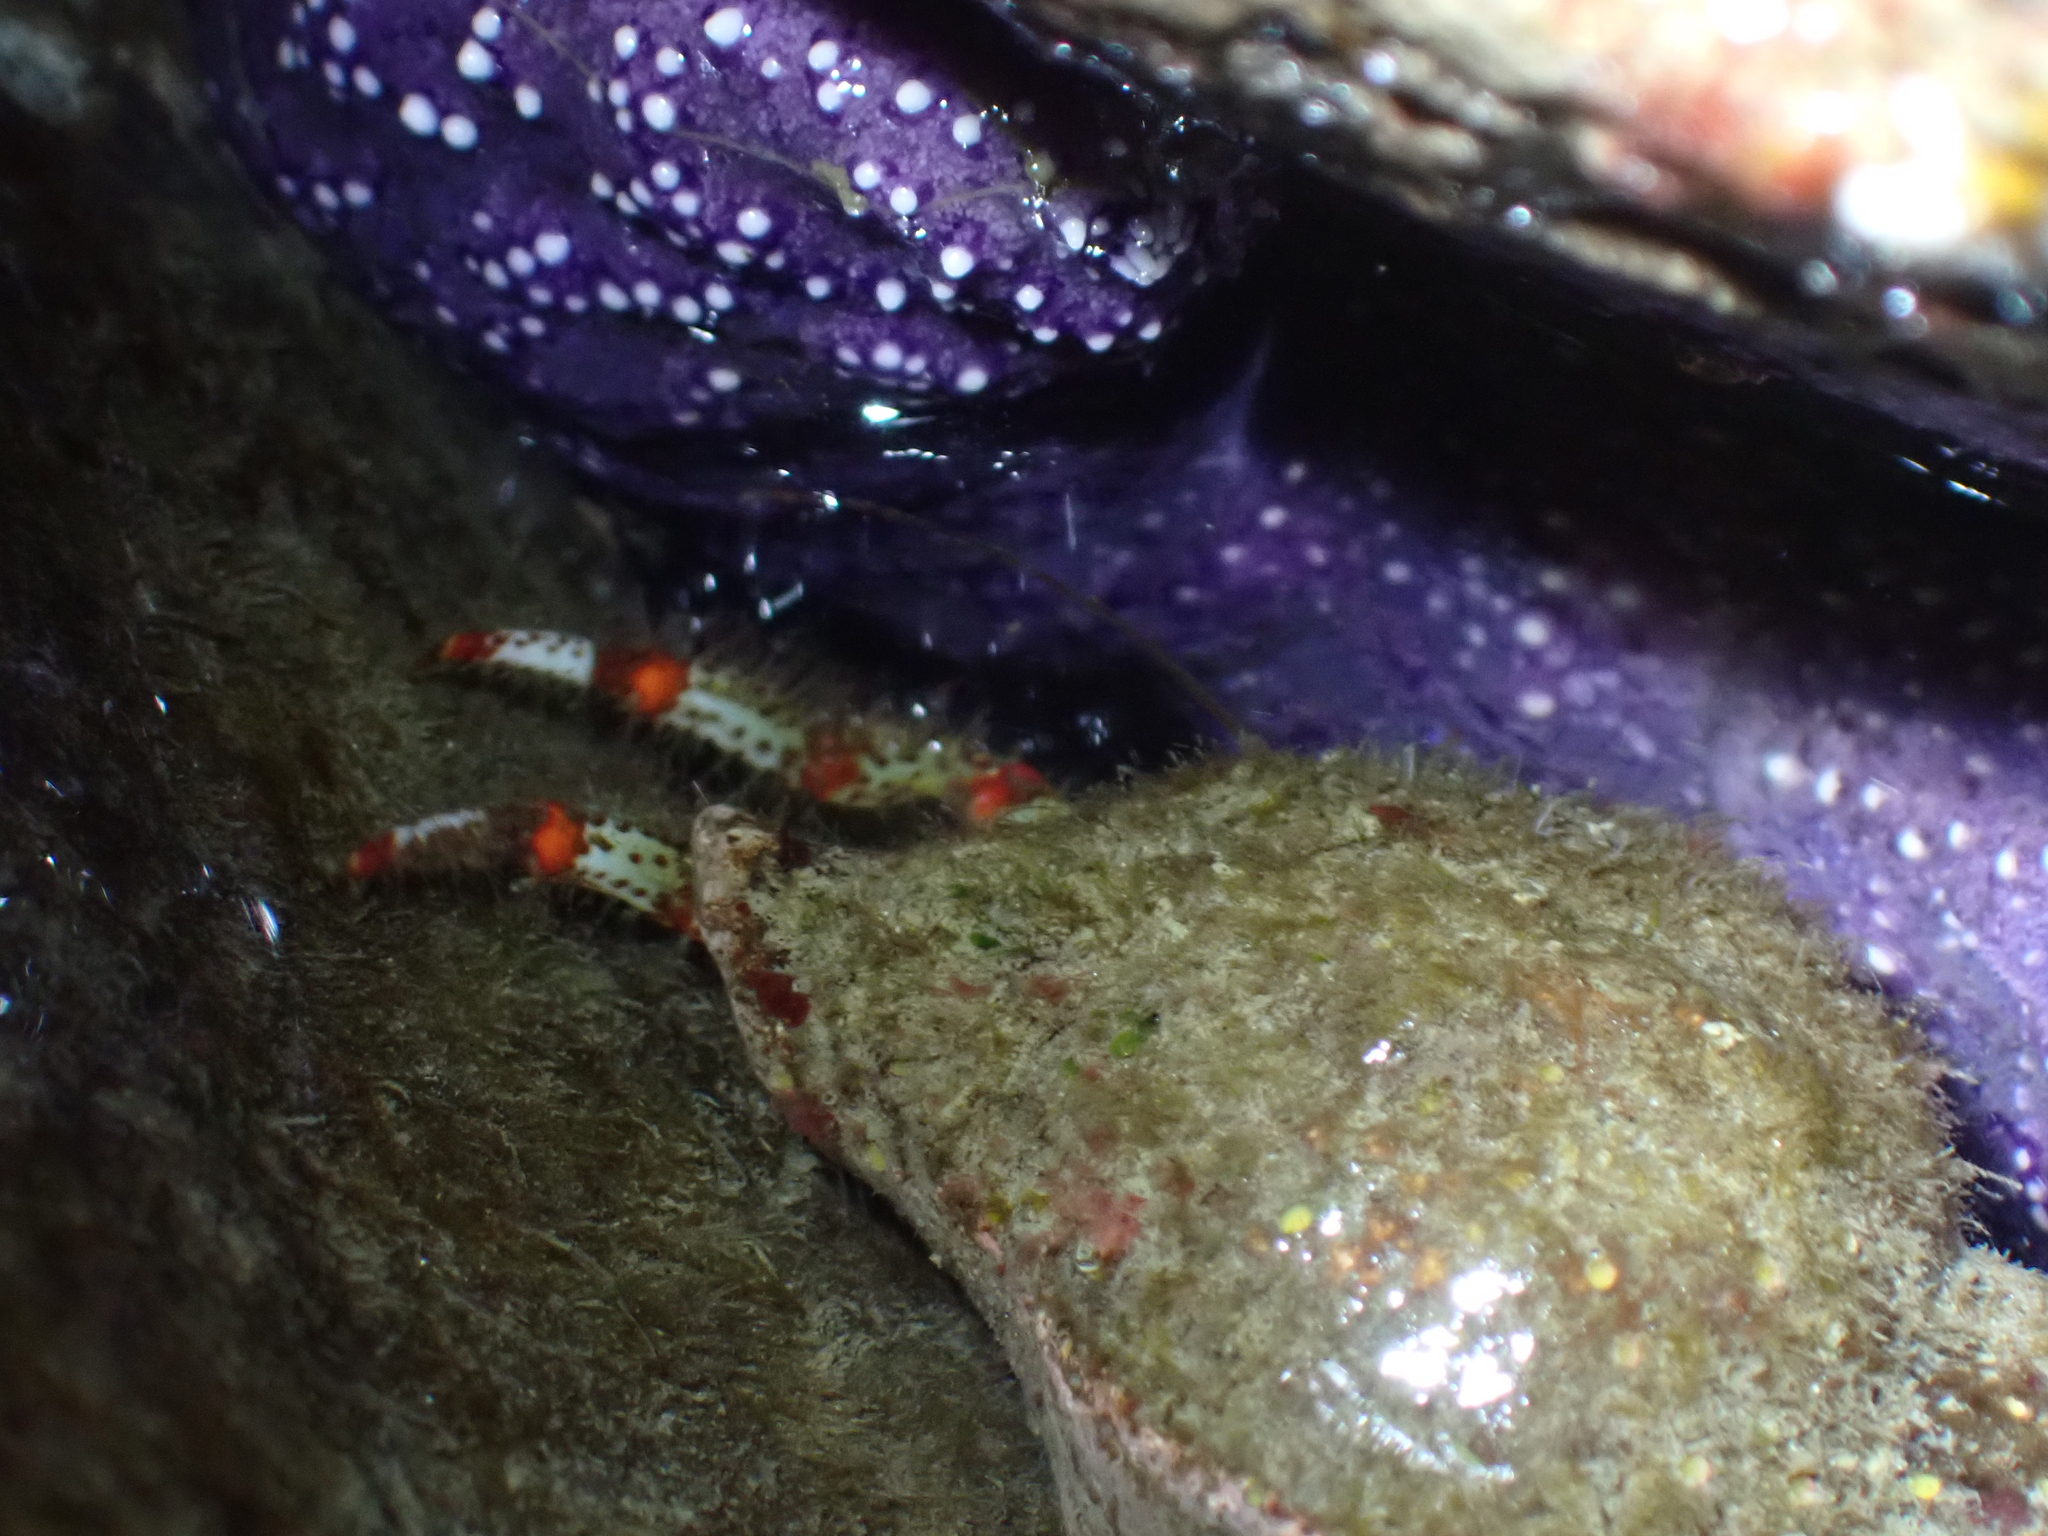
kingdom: Animalia
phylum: Arthropoda
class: Malacostraca
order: Decapoda
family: Paguridae
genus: Pagurus
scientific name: Pagurus beringanus
